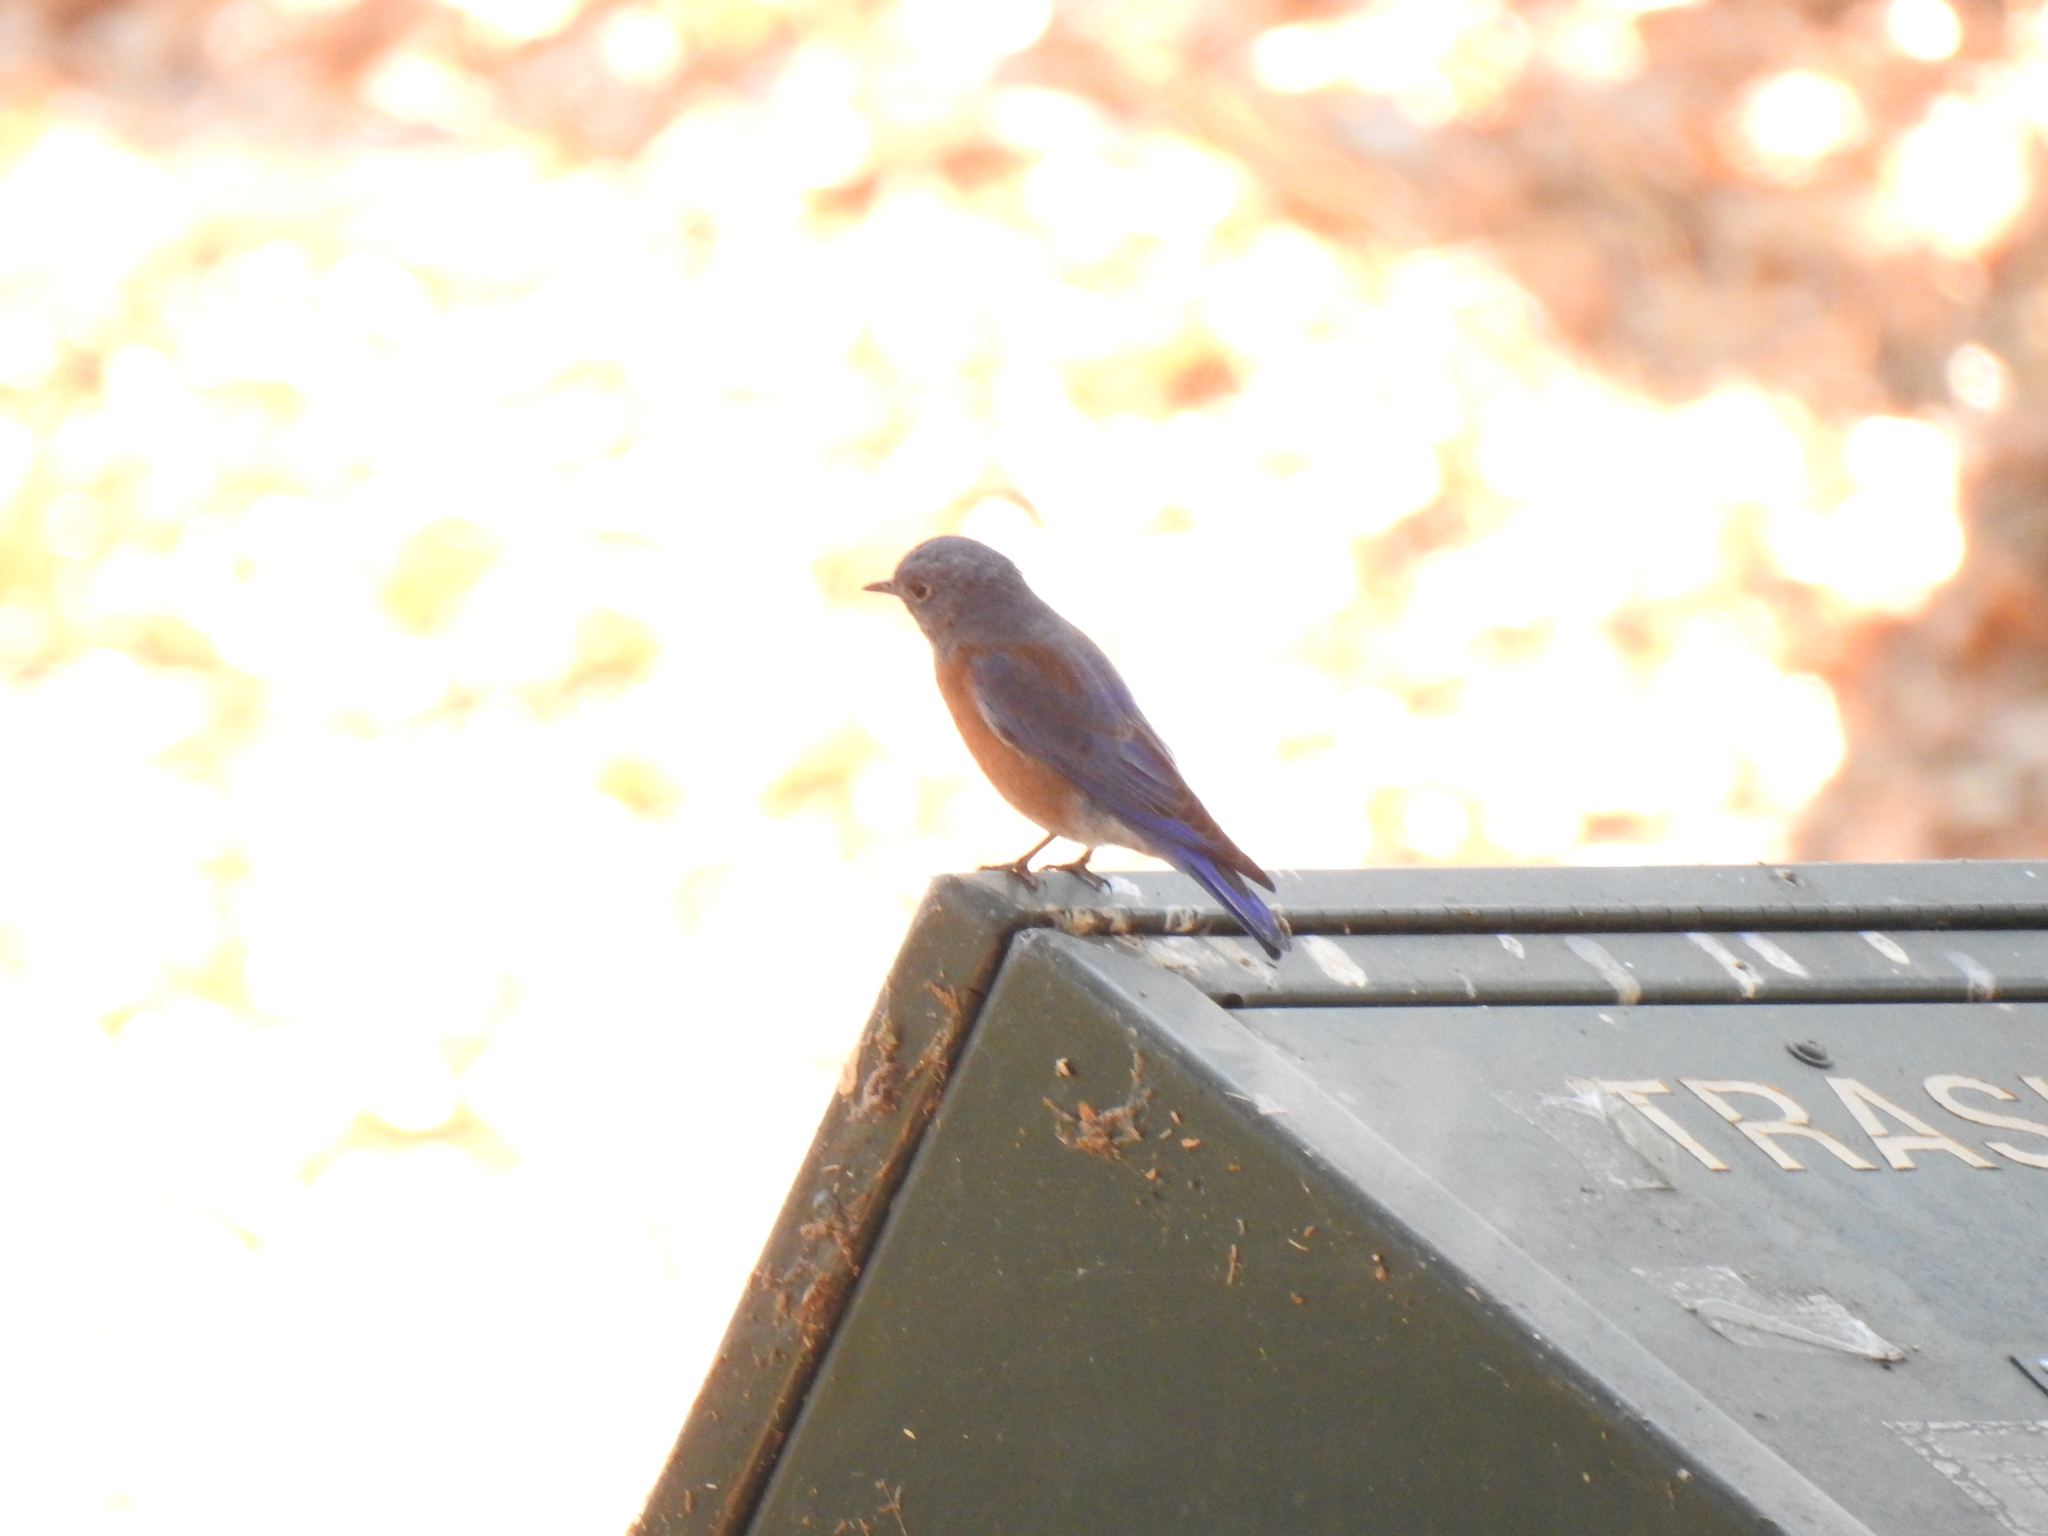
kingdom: Animalia
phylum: Chordata
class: Aves
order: Passeriformes
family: Turdidae
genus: Sialia
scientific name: Sialia mexicana
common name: Western bluebird
